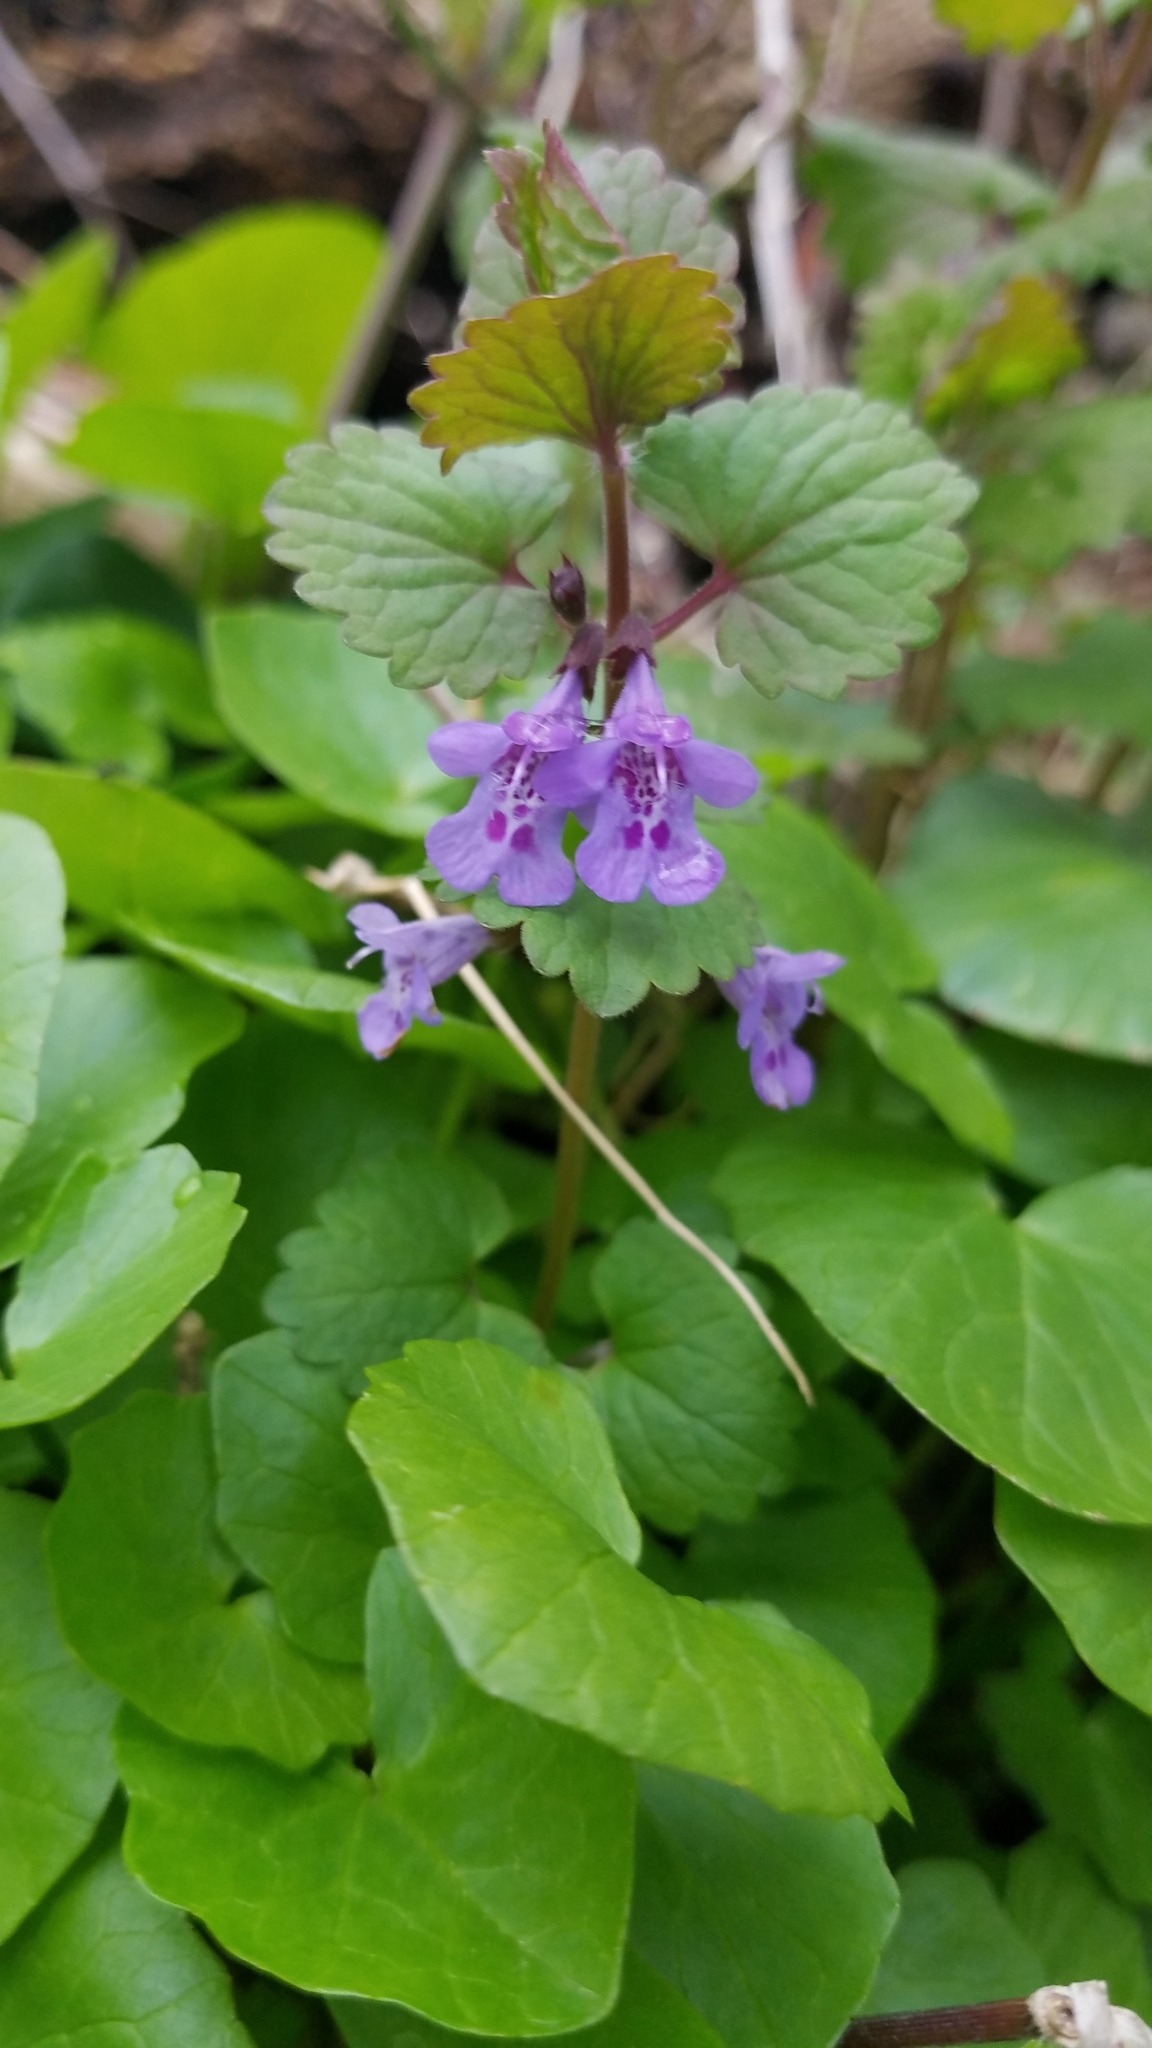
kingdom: Plantae
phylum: Tracheophyta
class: Magnoliopsida
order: Lamiales
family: Lamiaceae
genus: Glechoma
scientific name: Glechoma hederacea
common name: Ground ivy
